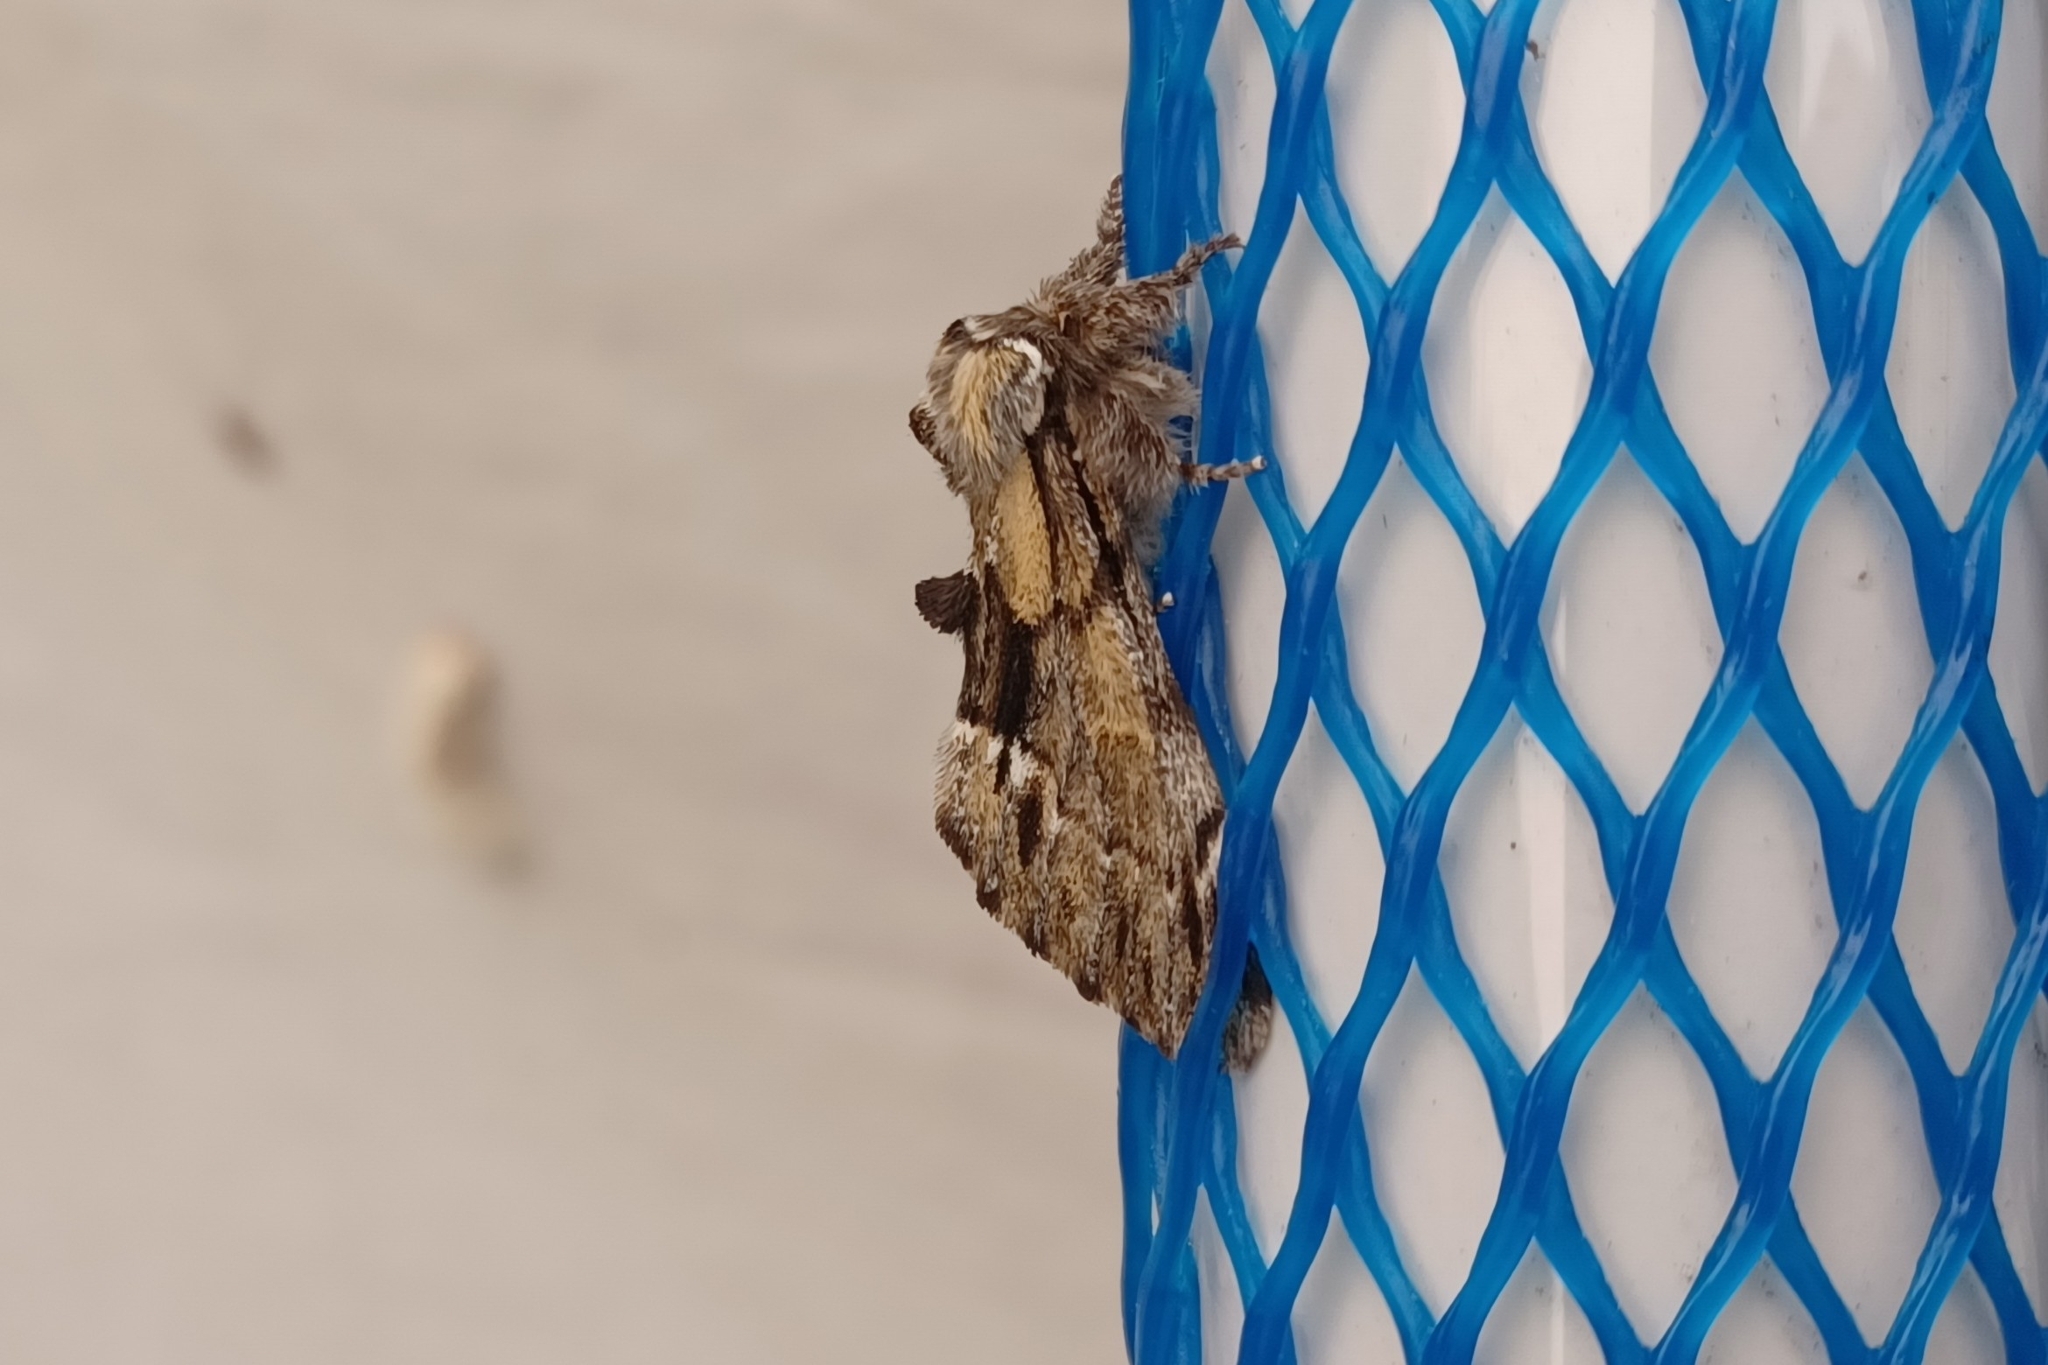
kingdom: Animalia
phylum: Arthropoda
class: Insecta
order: Lepidoptera
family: Notodontidae
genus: Paraeschra
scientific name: Paraeschra georgica
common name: Georgian prominent
